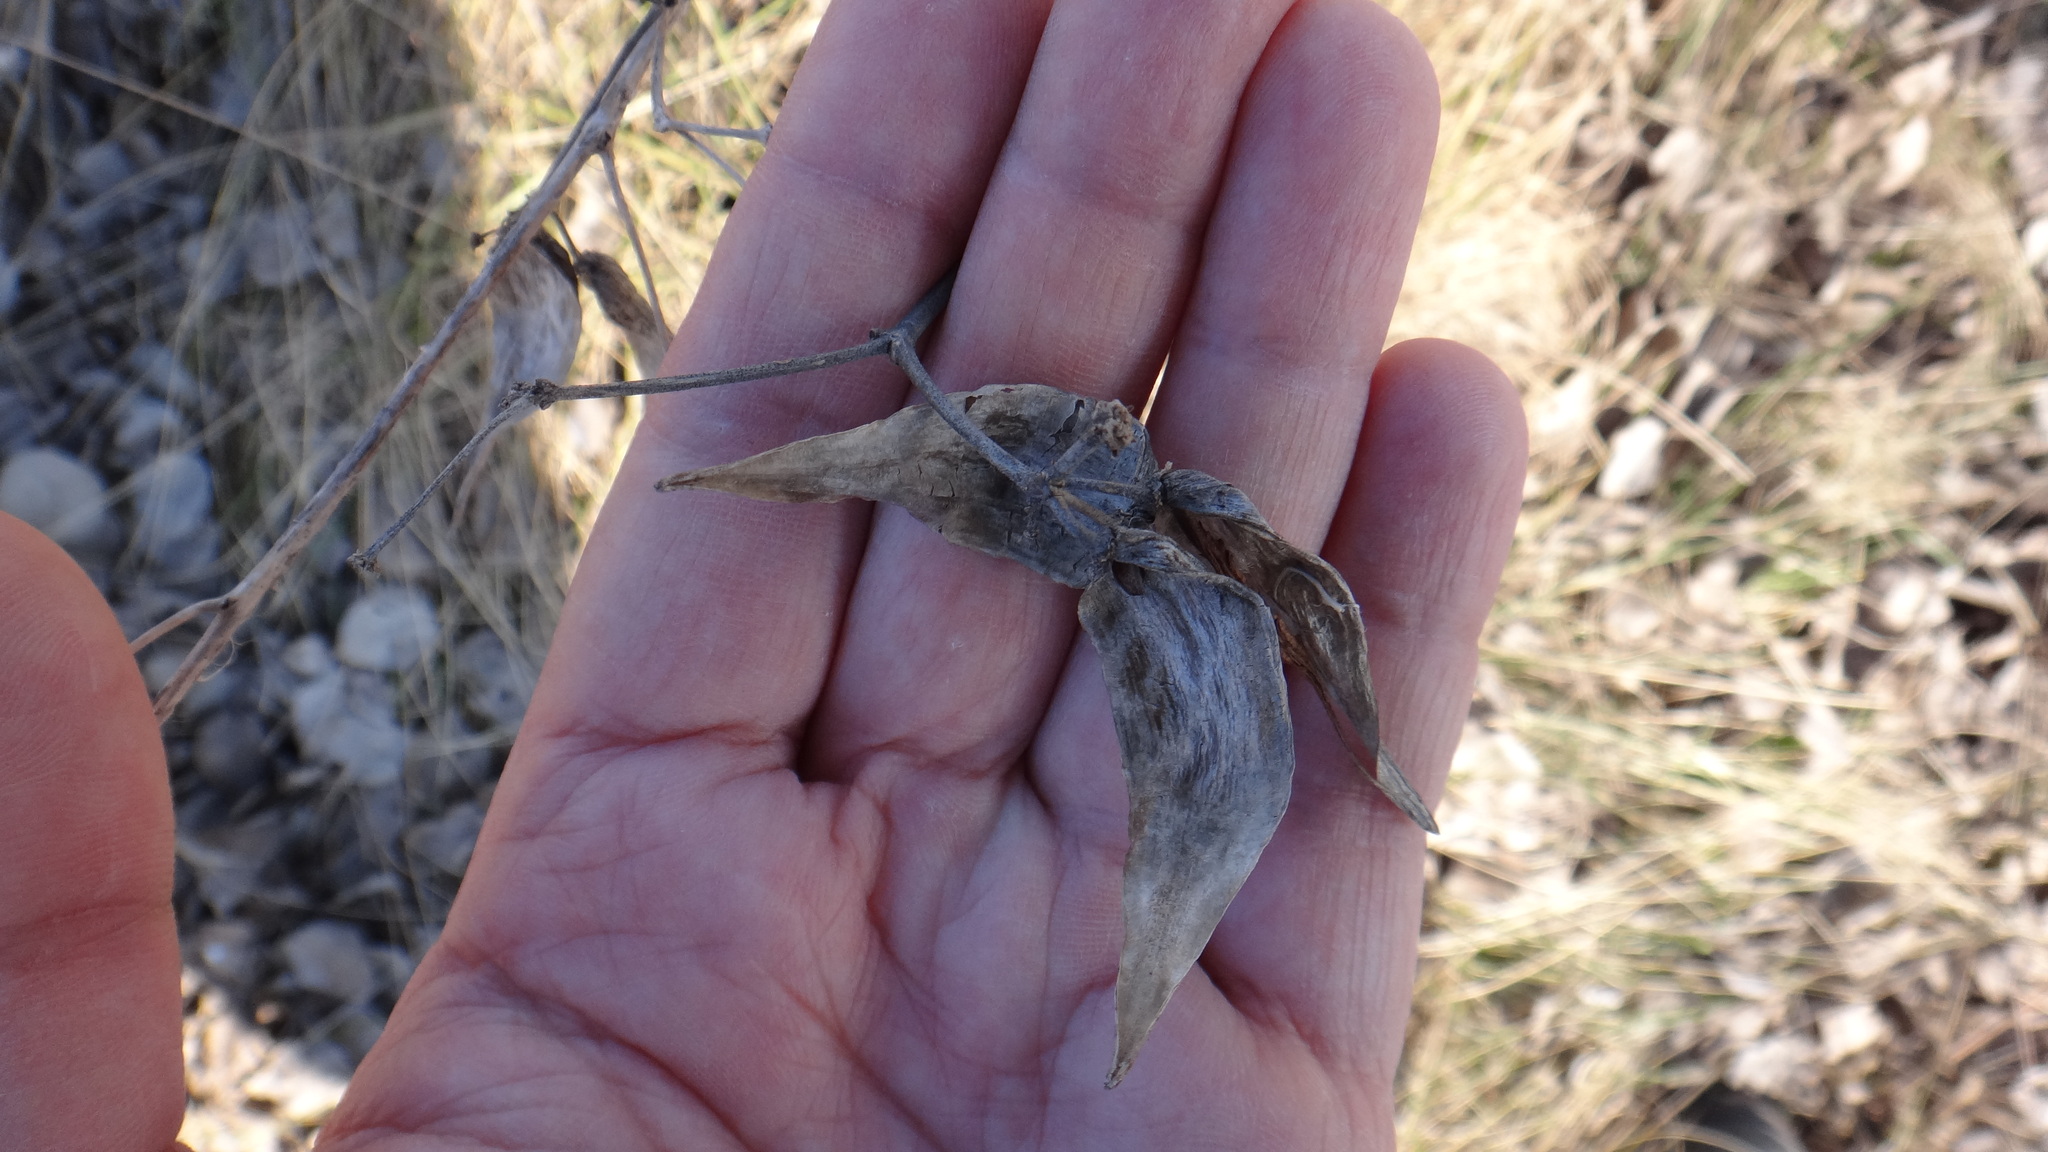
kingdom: Plantae
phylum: Tracheophyta
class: Magnoliopsida
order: Gentianales
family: Apocynaceae
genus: Vincetoxicum
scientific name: Vincetoxicum hirundinaria
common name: White swallowwort
